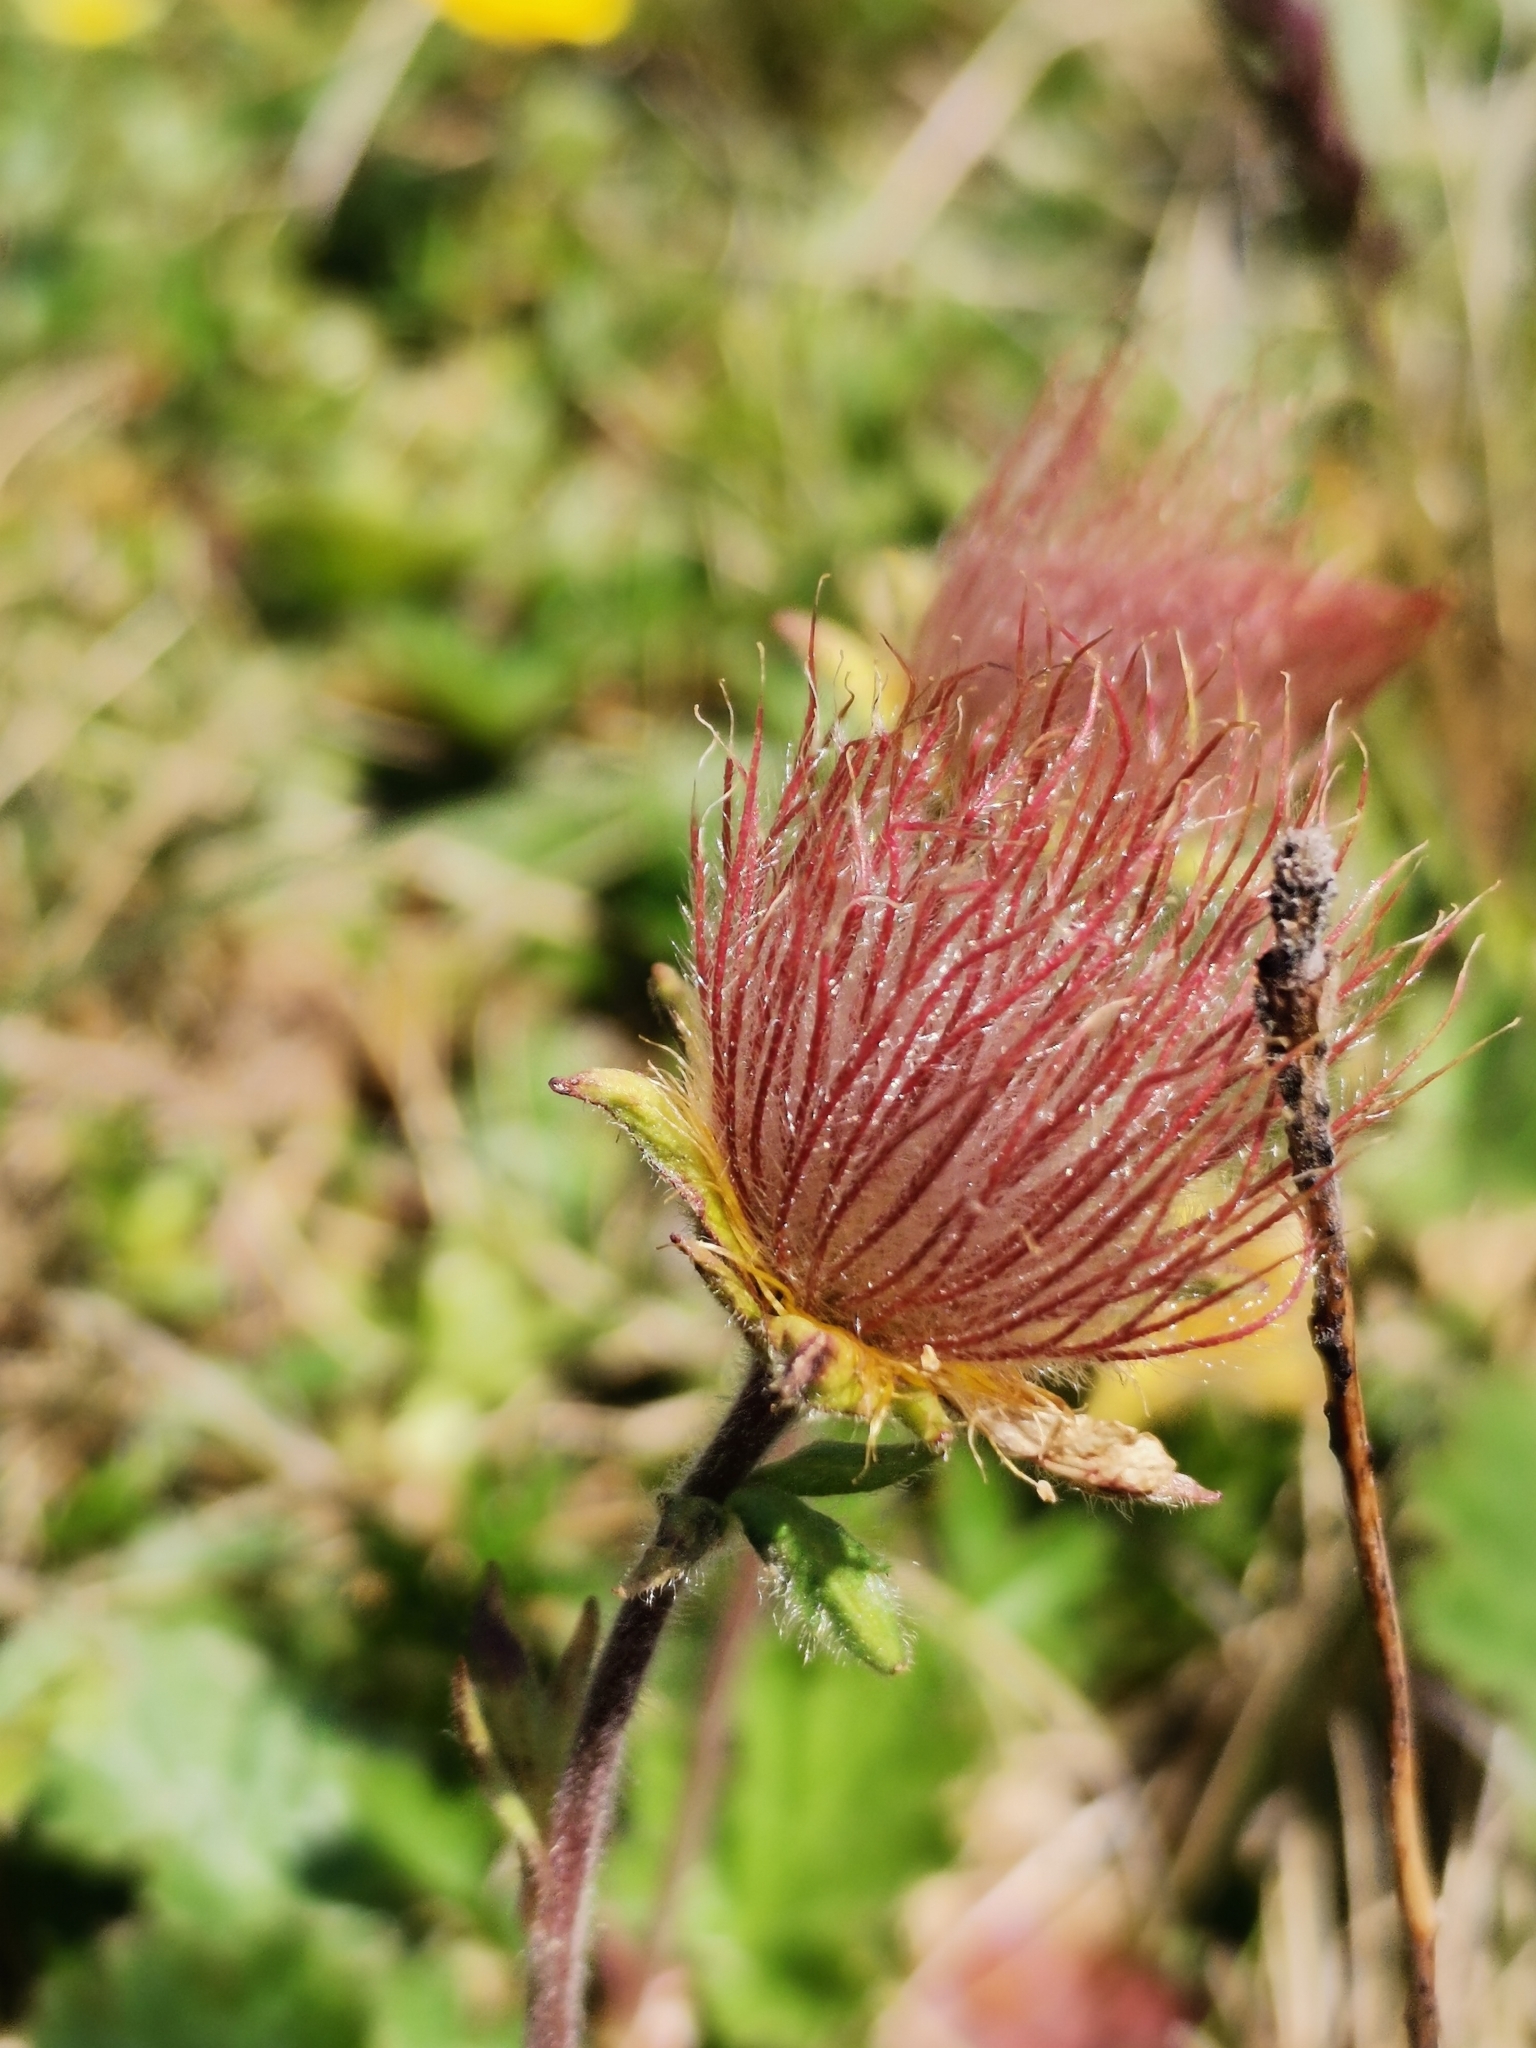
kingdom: Plantae
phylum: Tracheophyta
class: Magnoliopsida
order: Rosales
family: Rosaceae
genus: Geum
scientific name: Geum montanum
